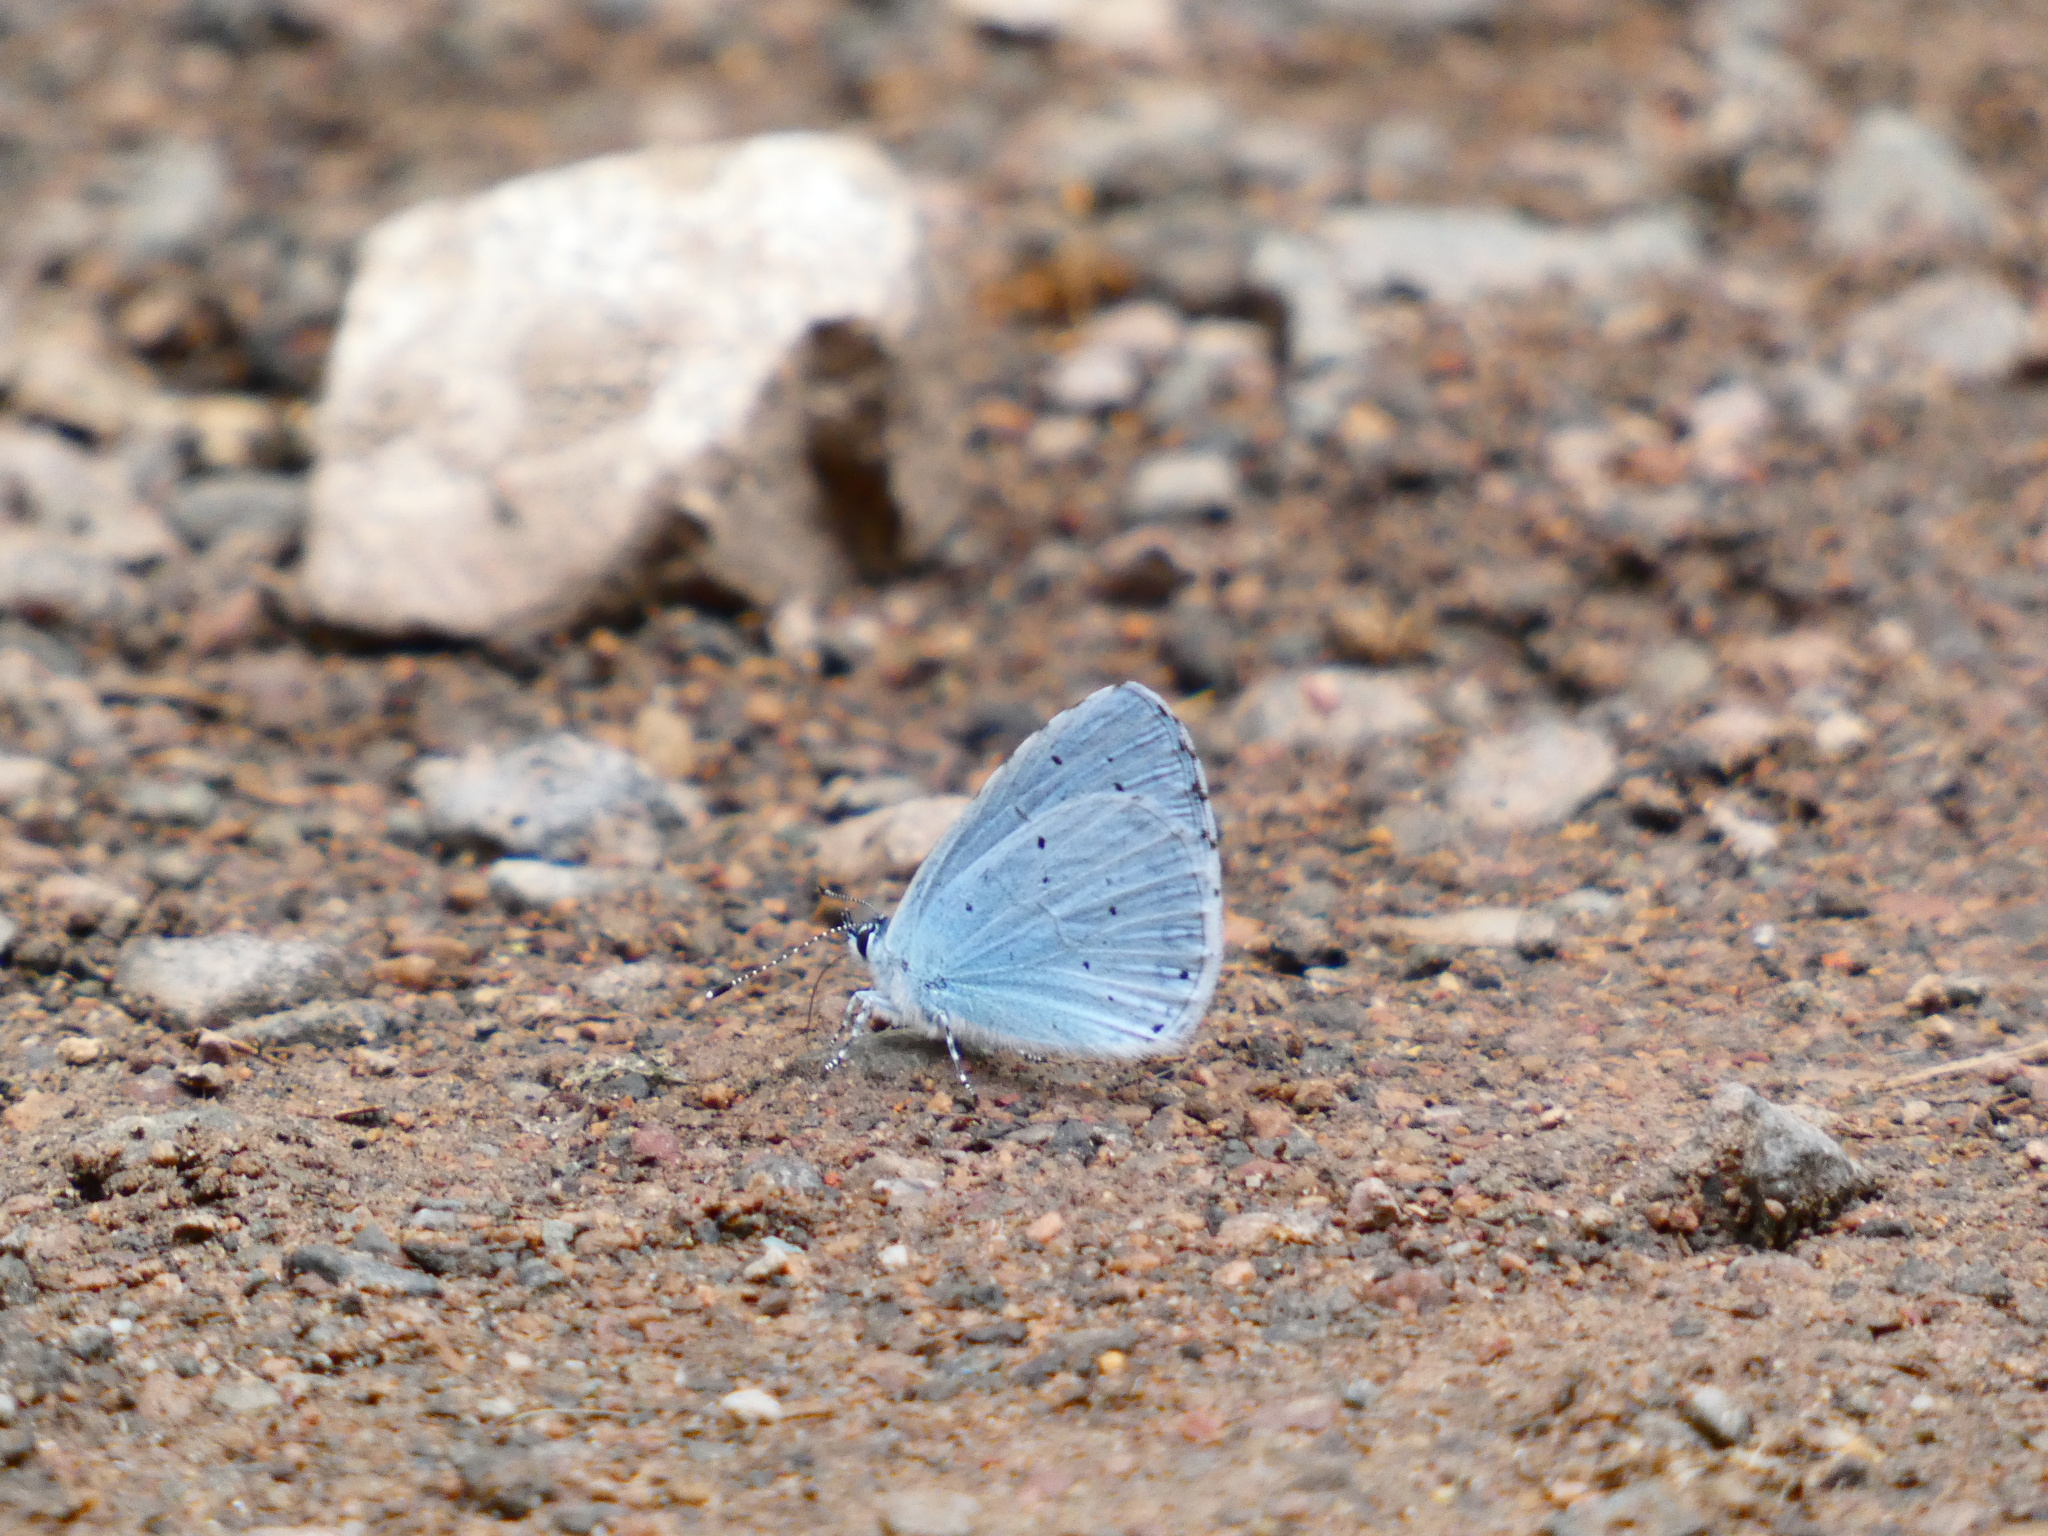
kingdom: Animalia
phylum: Arthropoda
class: Insecta
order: Lepidoptera
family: Lycaenidae
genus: Celastrina
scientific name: Celastrina argiolus
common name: Holly blue
